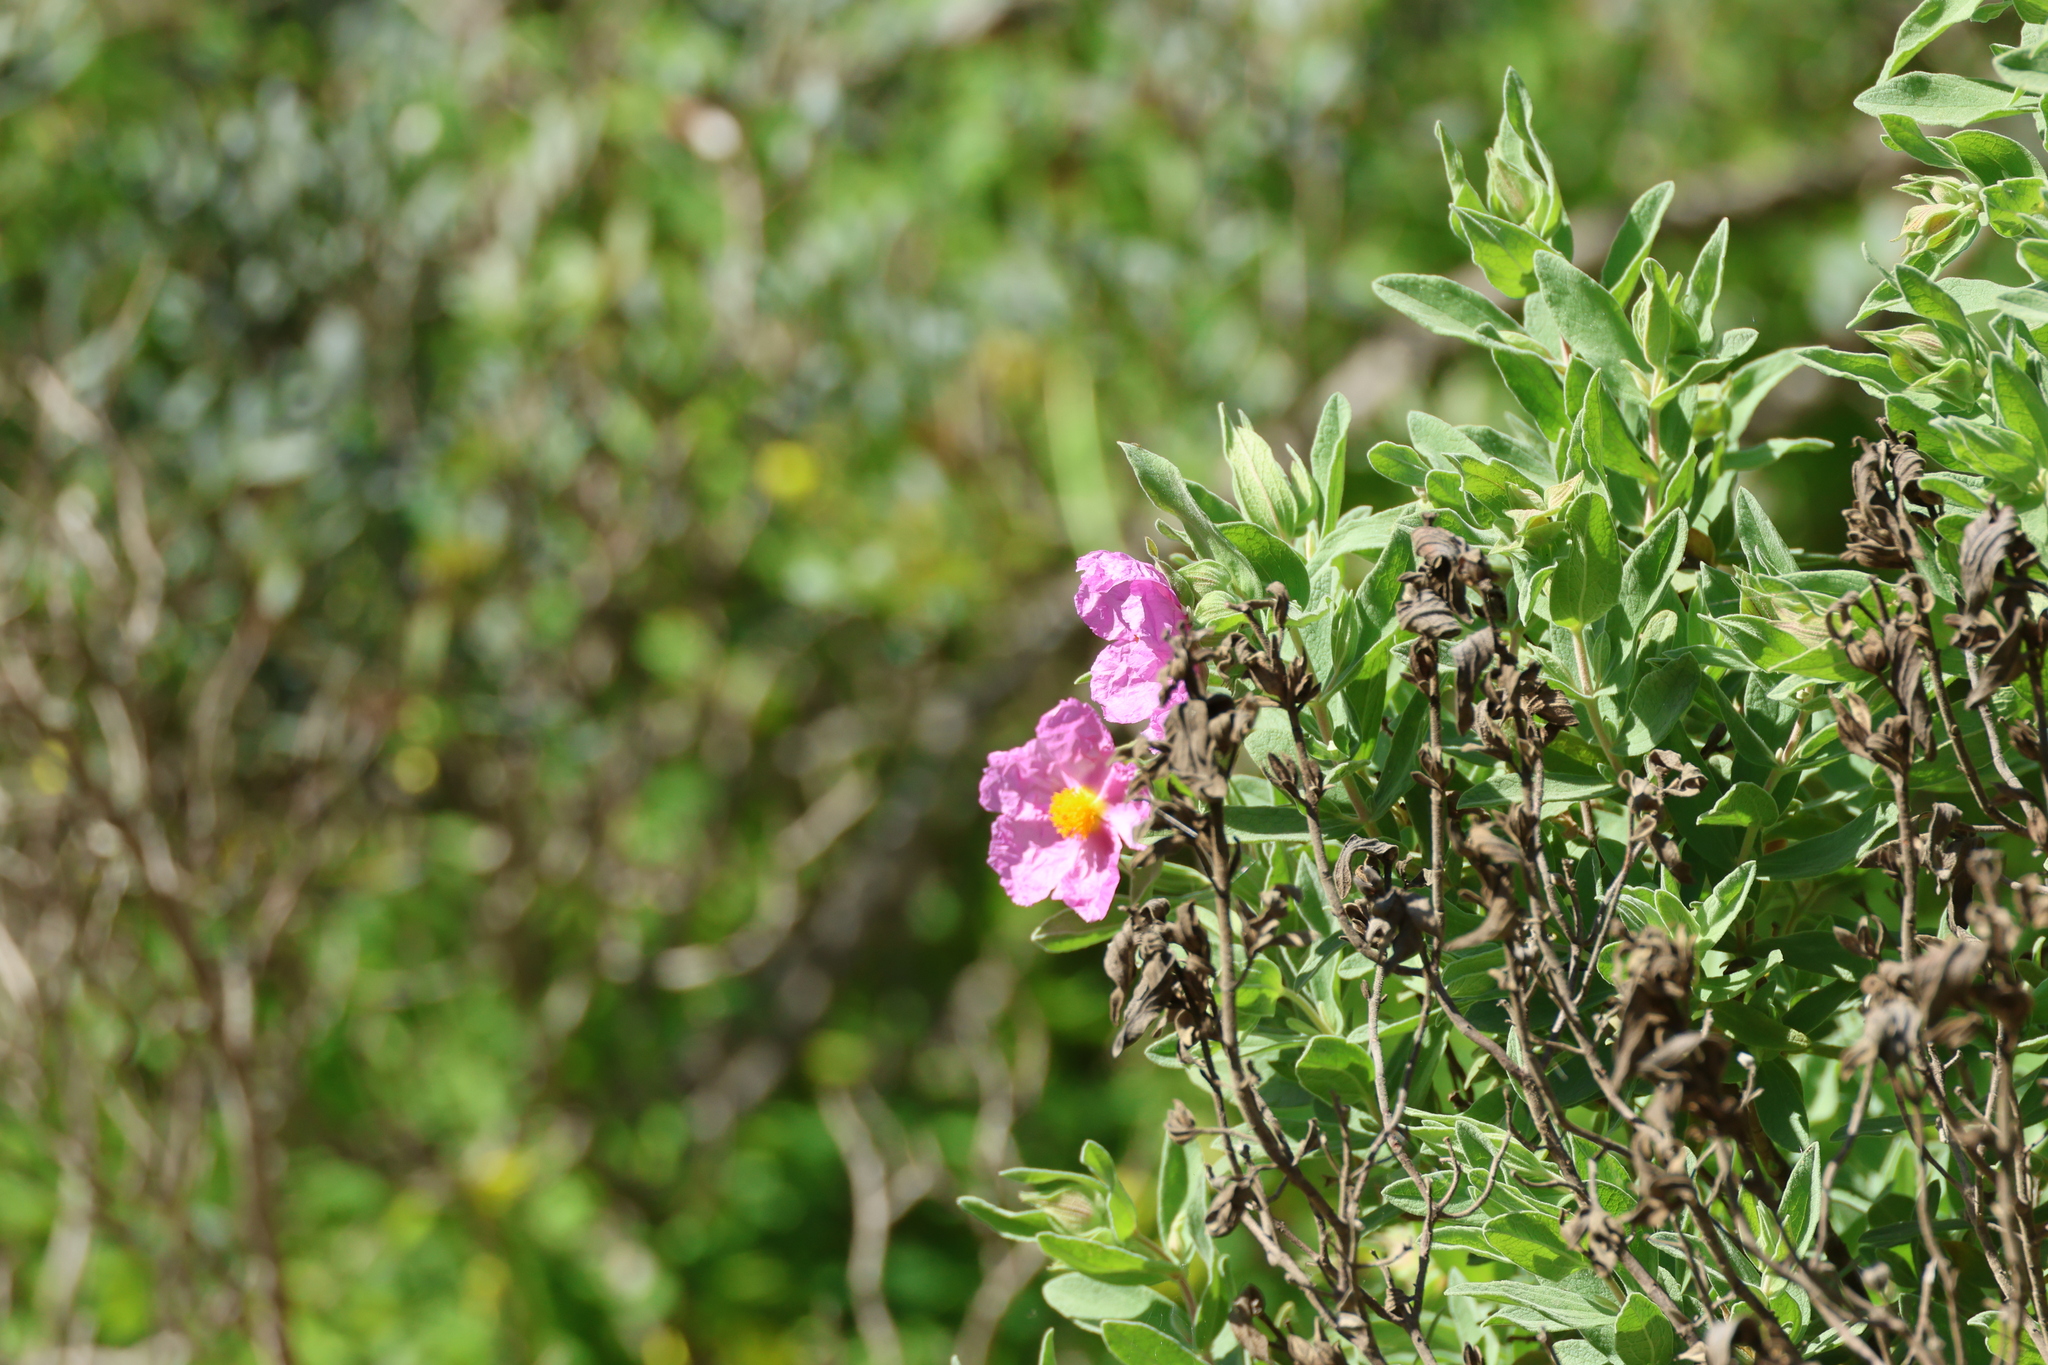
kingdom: Plantae
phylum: Tracheophyta
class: Magnoliopsida
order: Malvales
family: Cistaceae
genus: Cistus
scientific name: Cistus albidus
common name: White-leaf rock-rose
